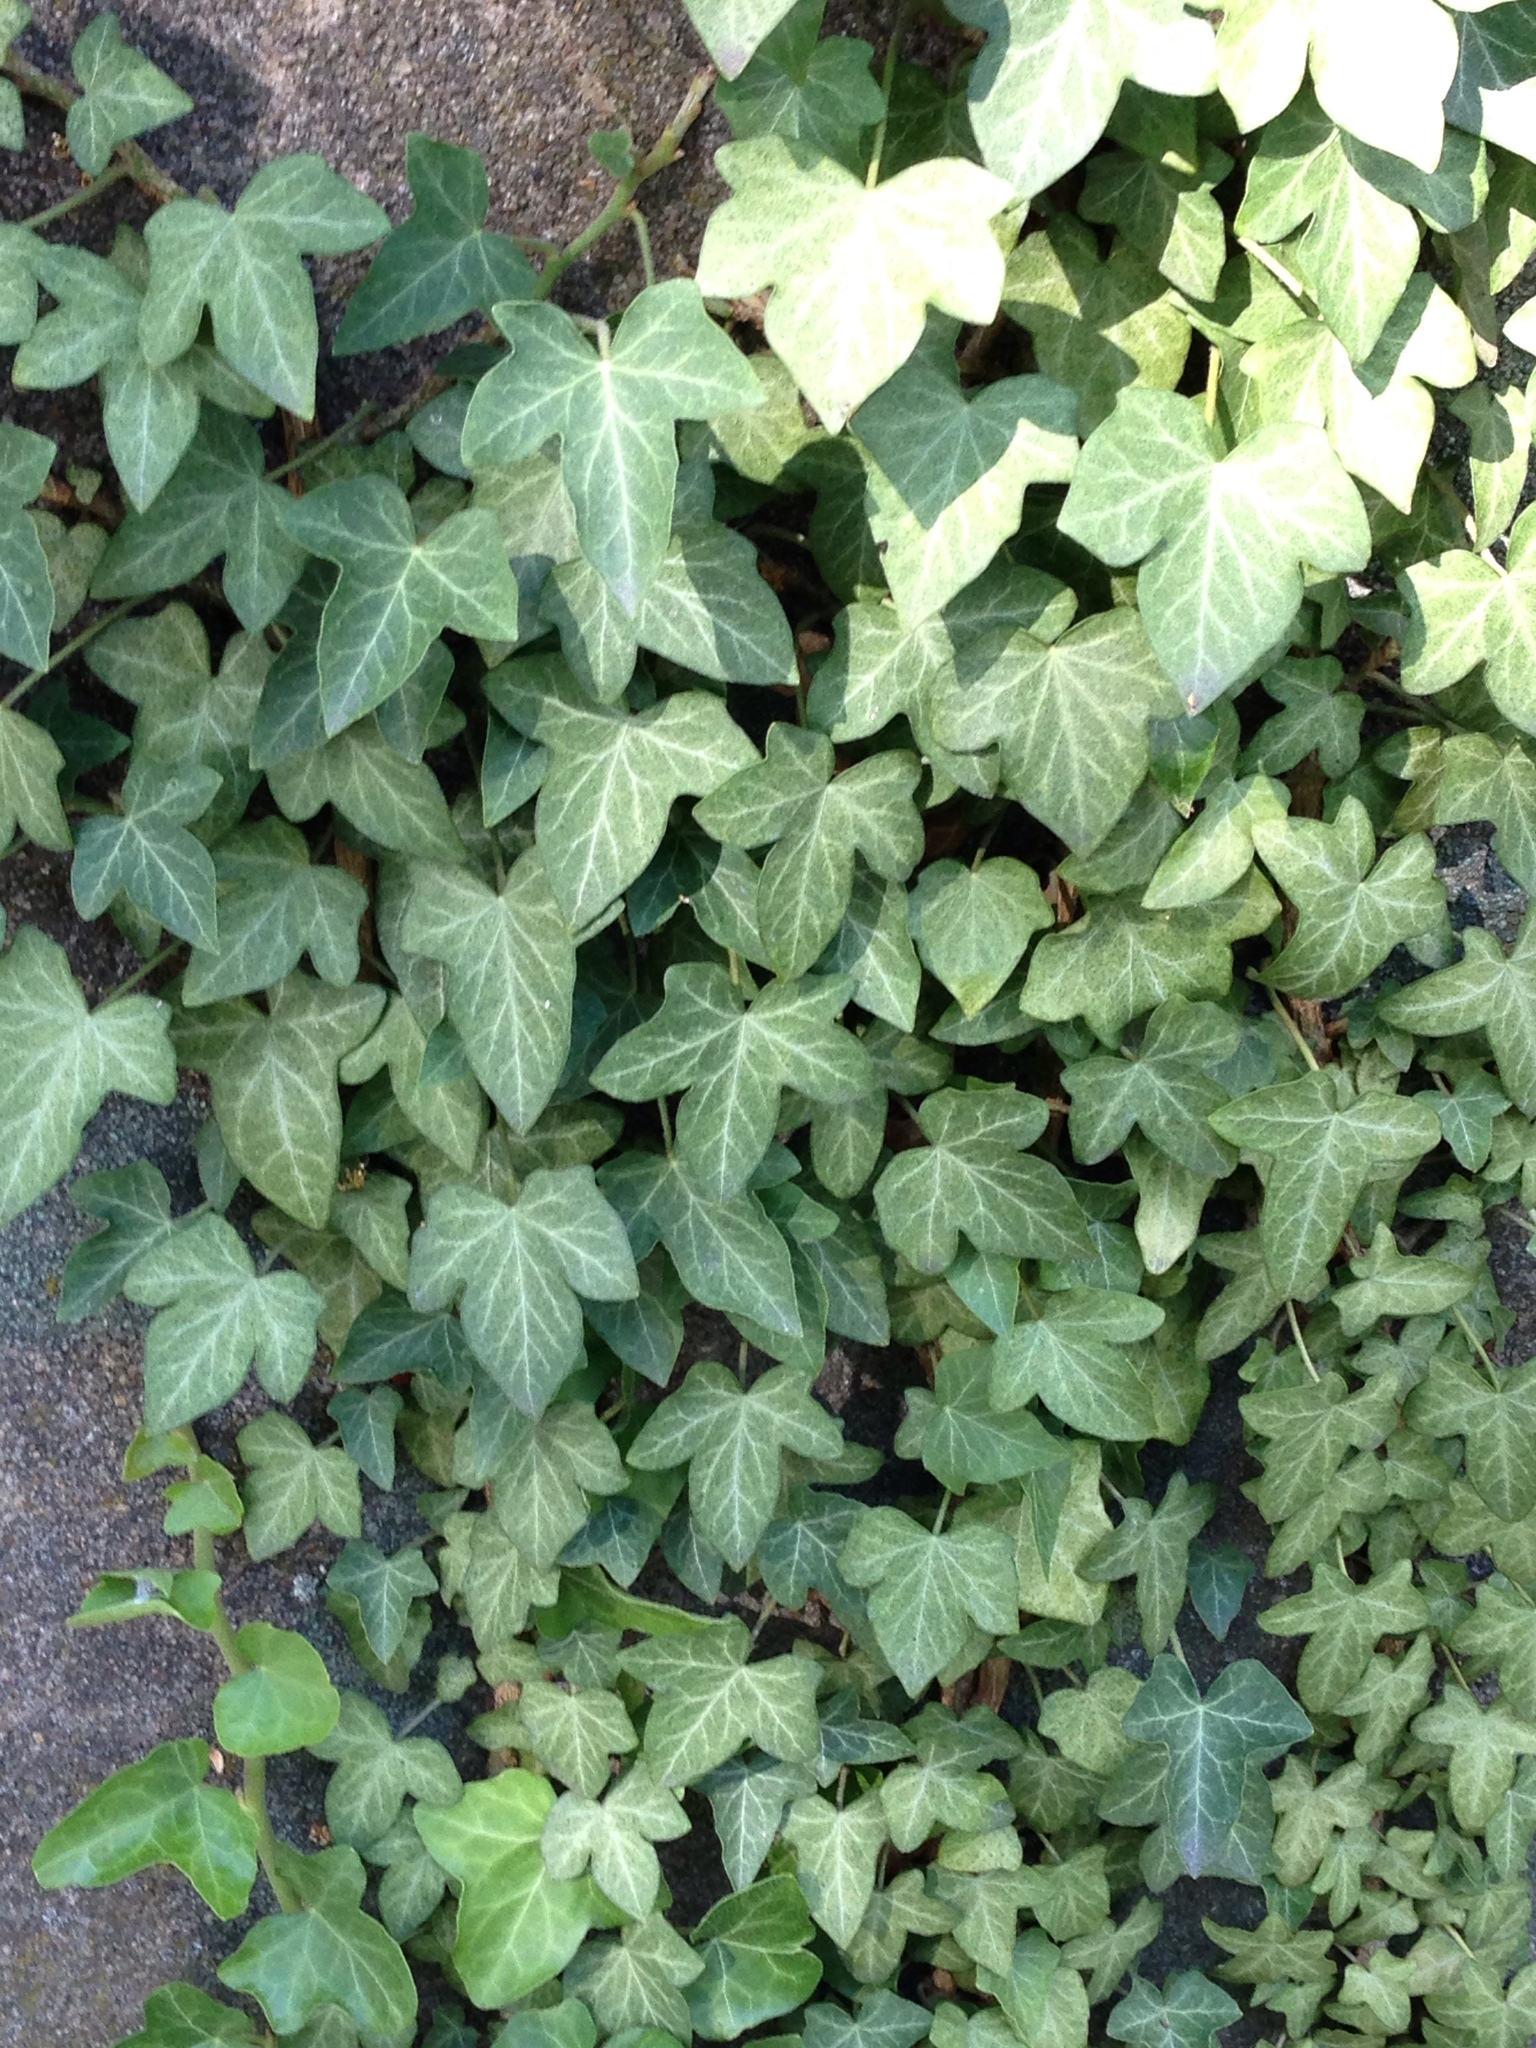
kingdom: Plantae
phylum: Tracheophyta
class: Magnoliopsida
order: Apiales
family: Araliaceae
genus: Hedera
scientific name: Hedera helix
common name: Ivy
